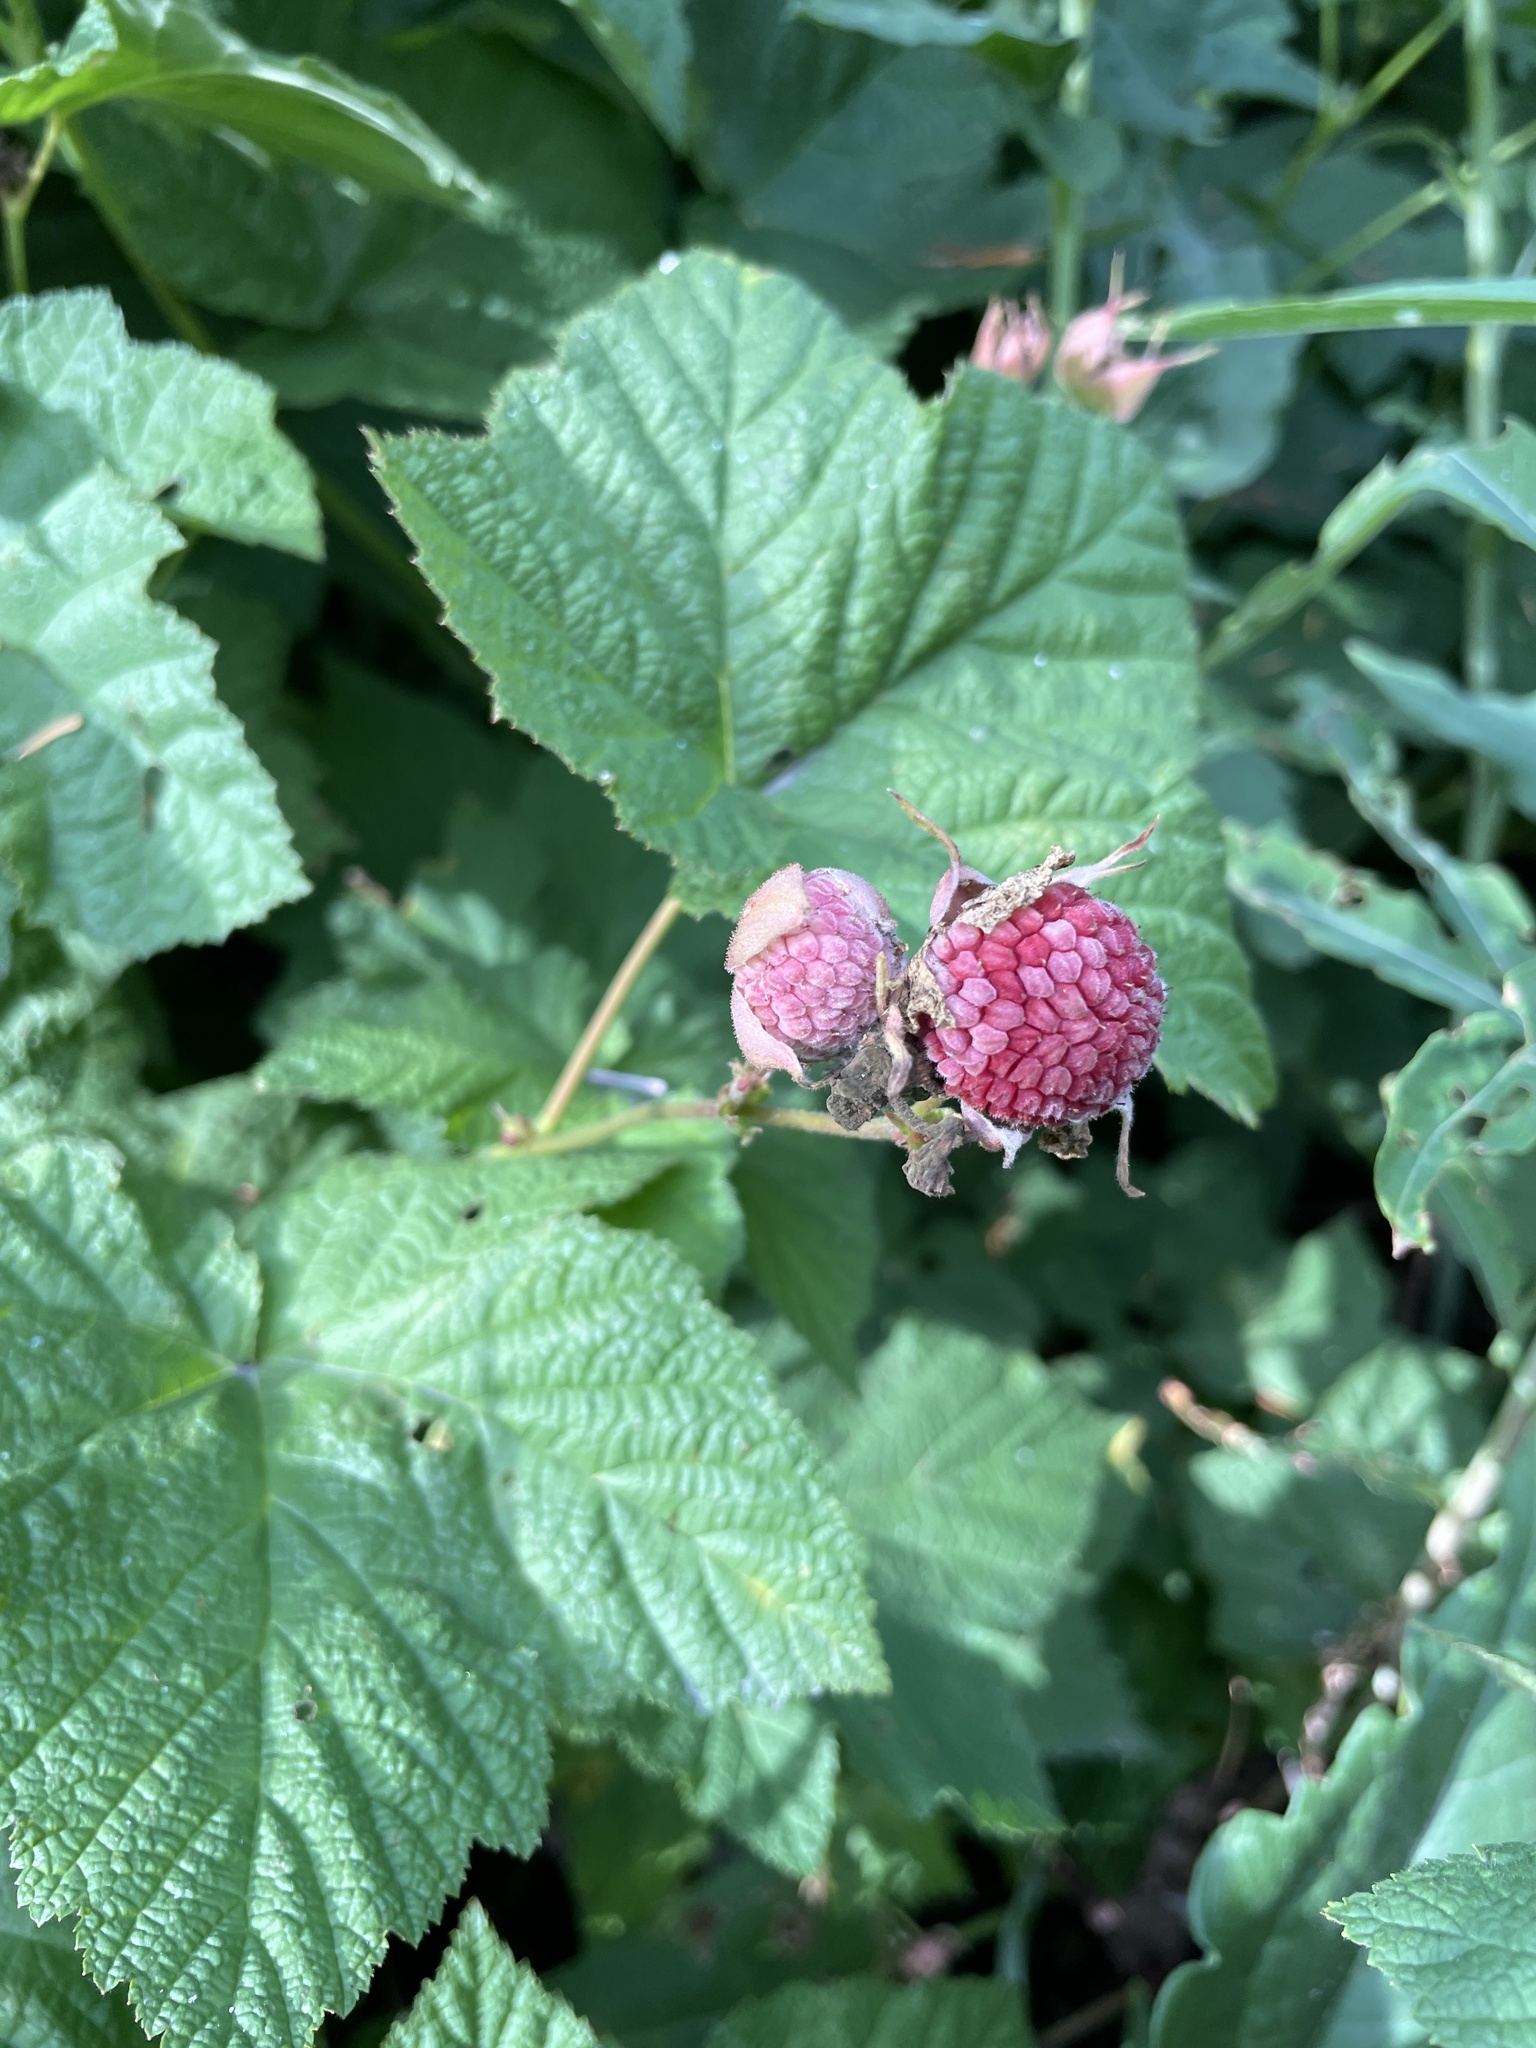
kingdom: Plantae
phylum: Tracheophyta
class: Magnoliopsida
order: Rosales
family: Rosaceae
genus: Rubus
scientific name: Rubus parviflorus
